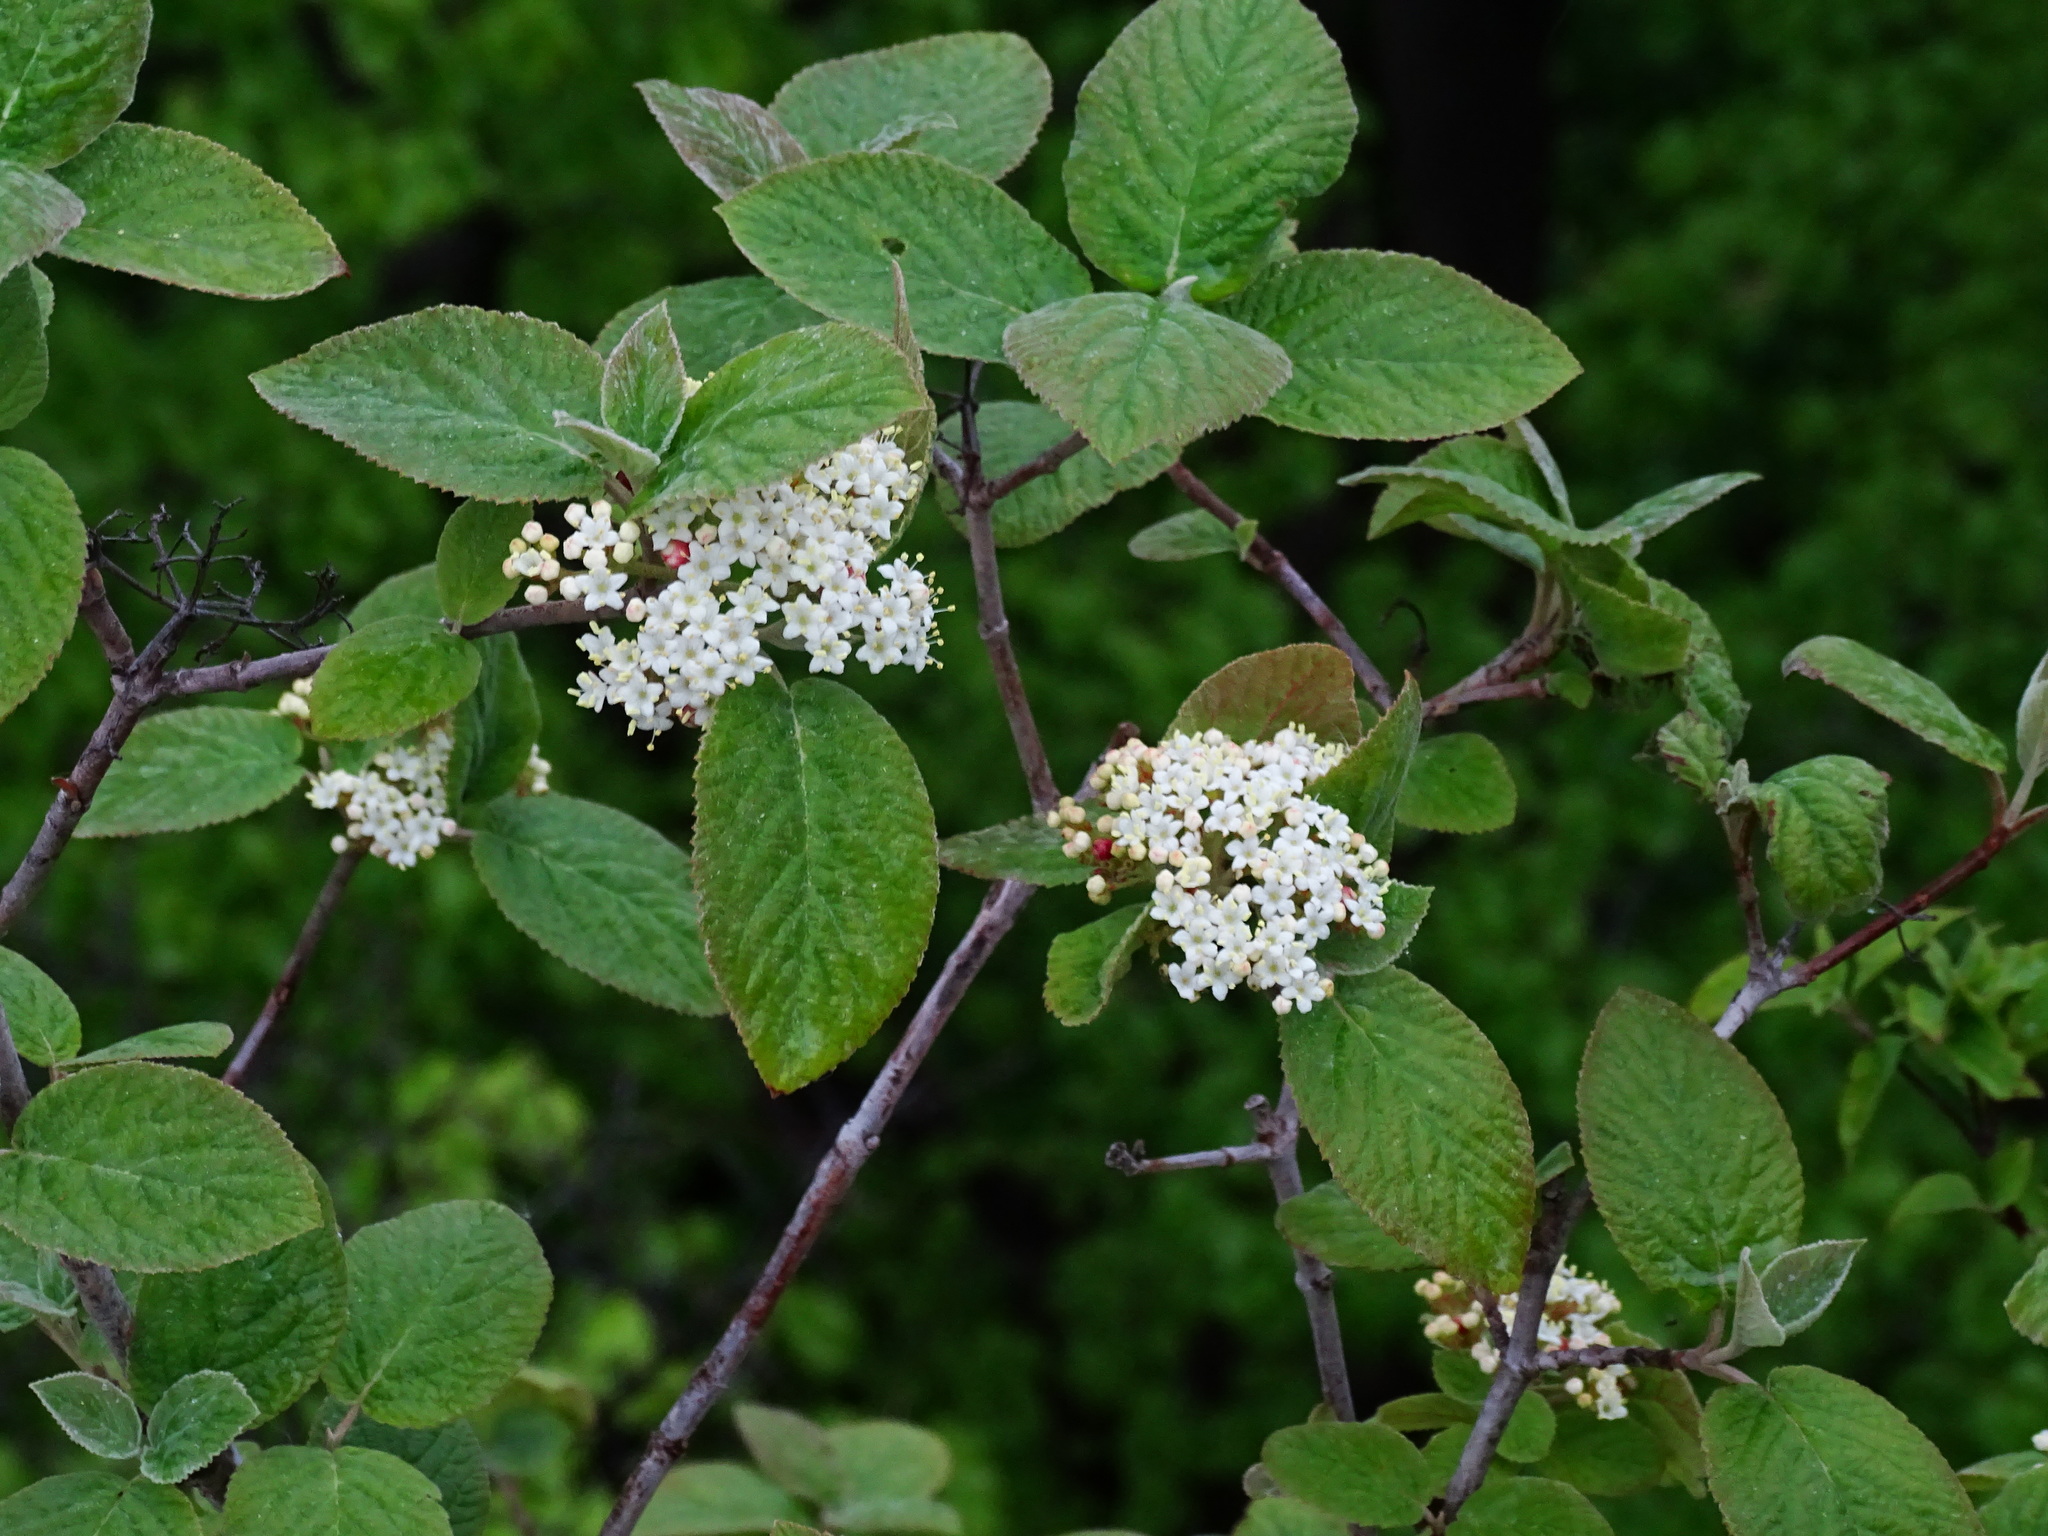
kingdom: Plantae
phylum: Tracheophyta
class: Magnoliopsida
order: Dipsacales
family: Viburnaceae
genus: Viburnum
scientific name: Viburnum lantana
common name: Wayfaring tree
